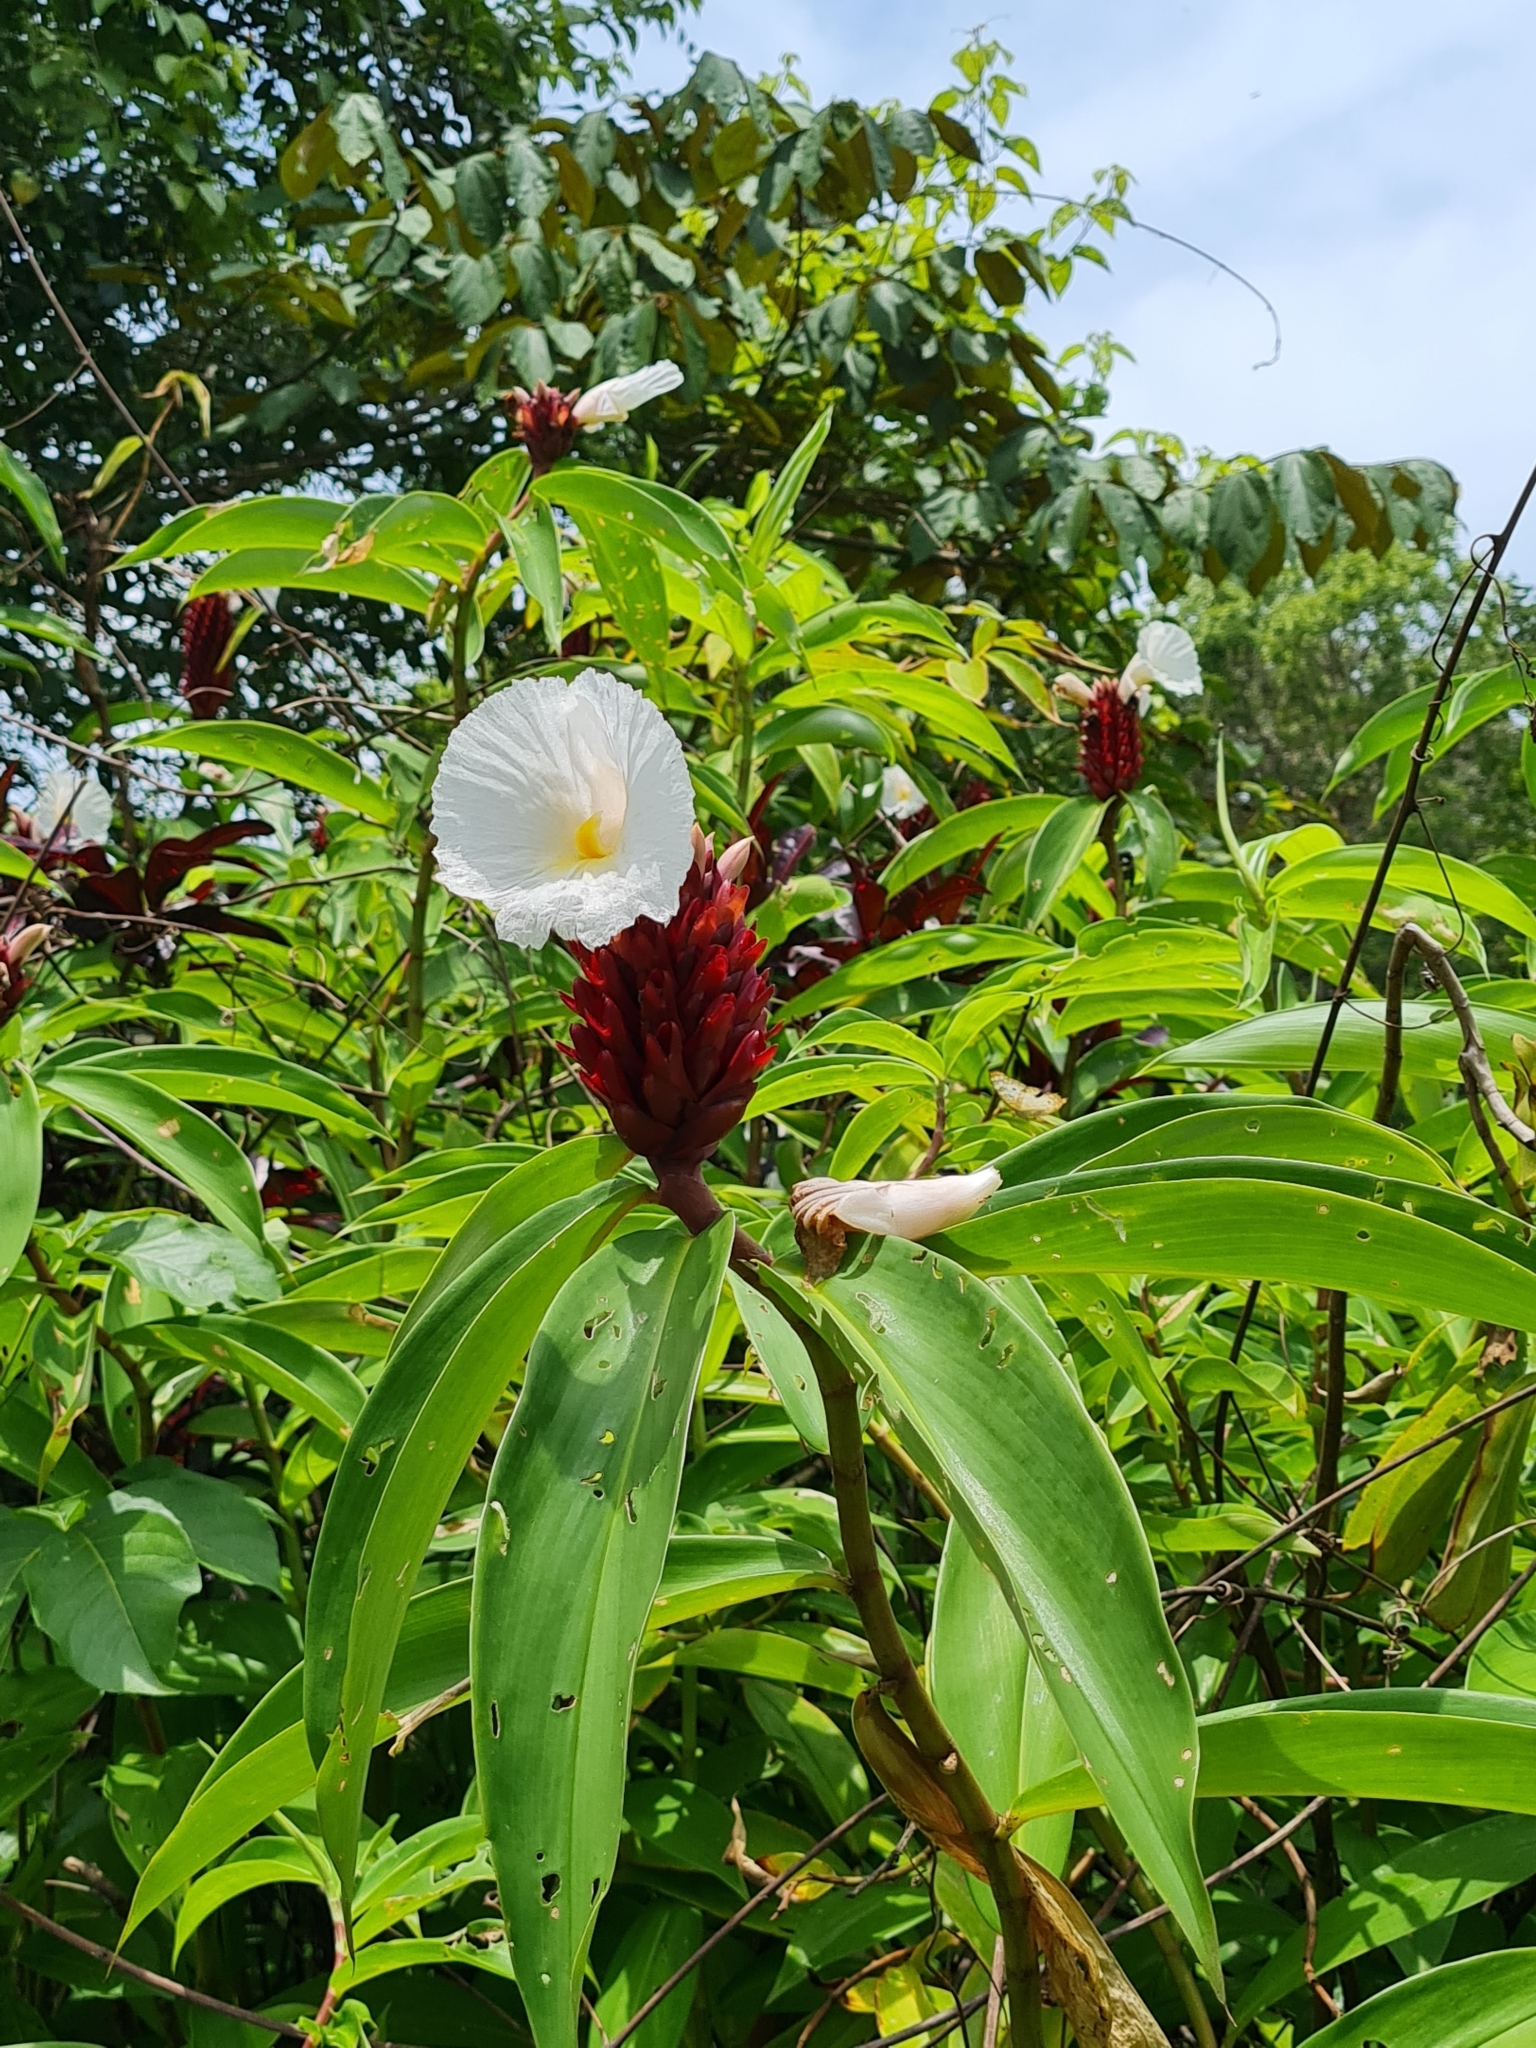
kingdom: Plantae
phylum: Tracheophyta
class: Liliopsida
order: Zingiberales
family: Costaceae
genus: Hellenia
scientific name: Hellenia speciosa
